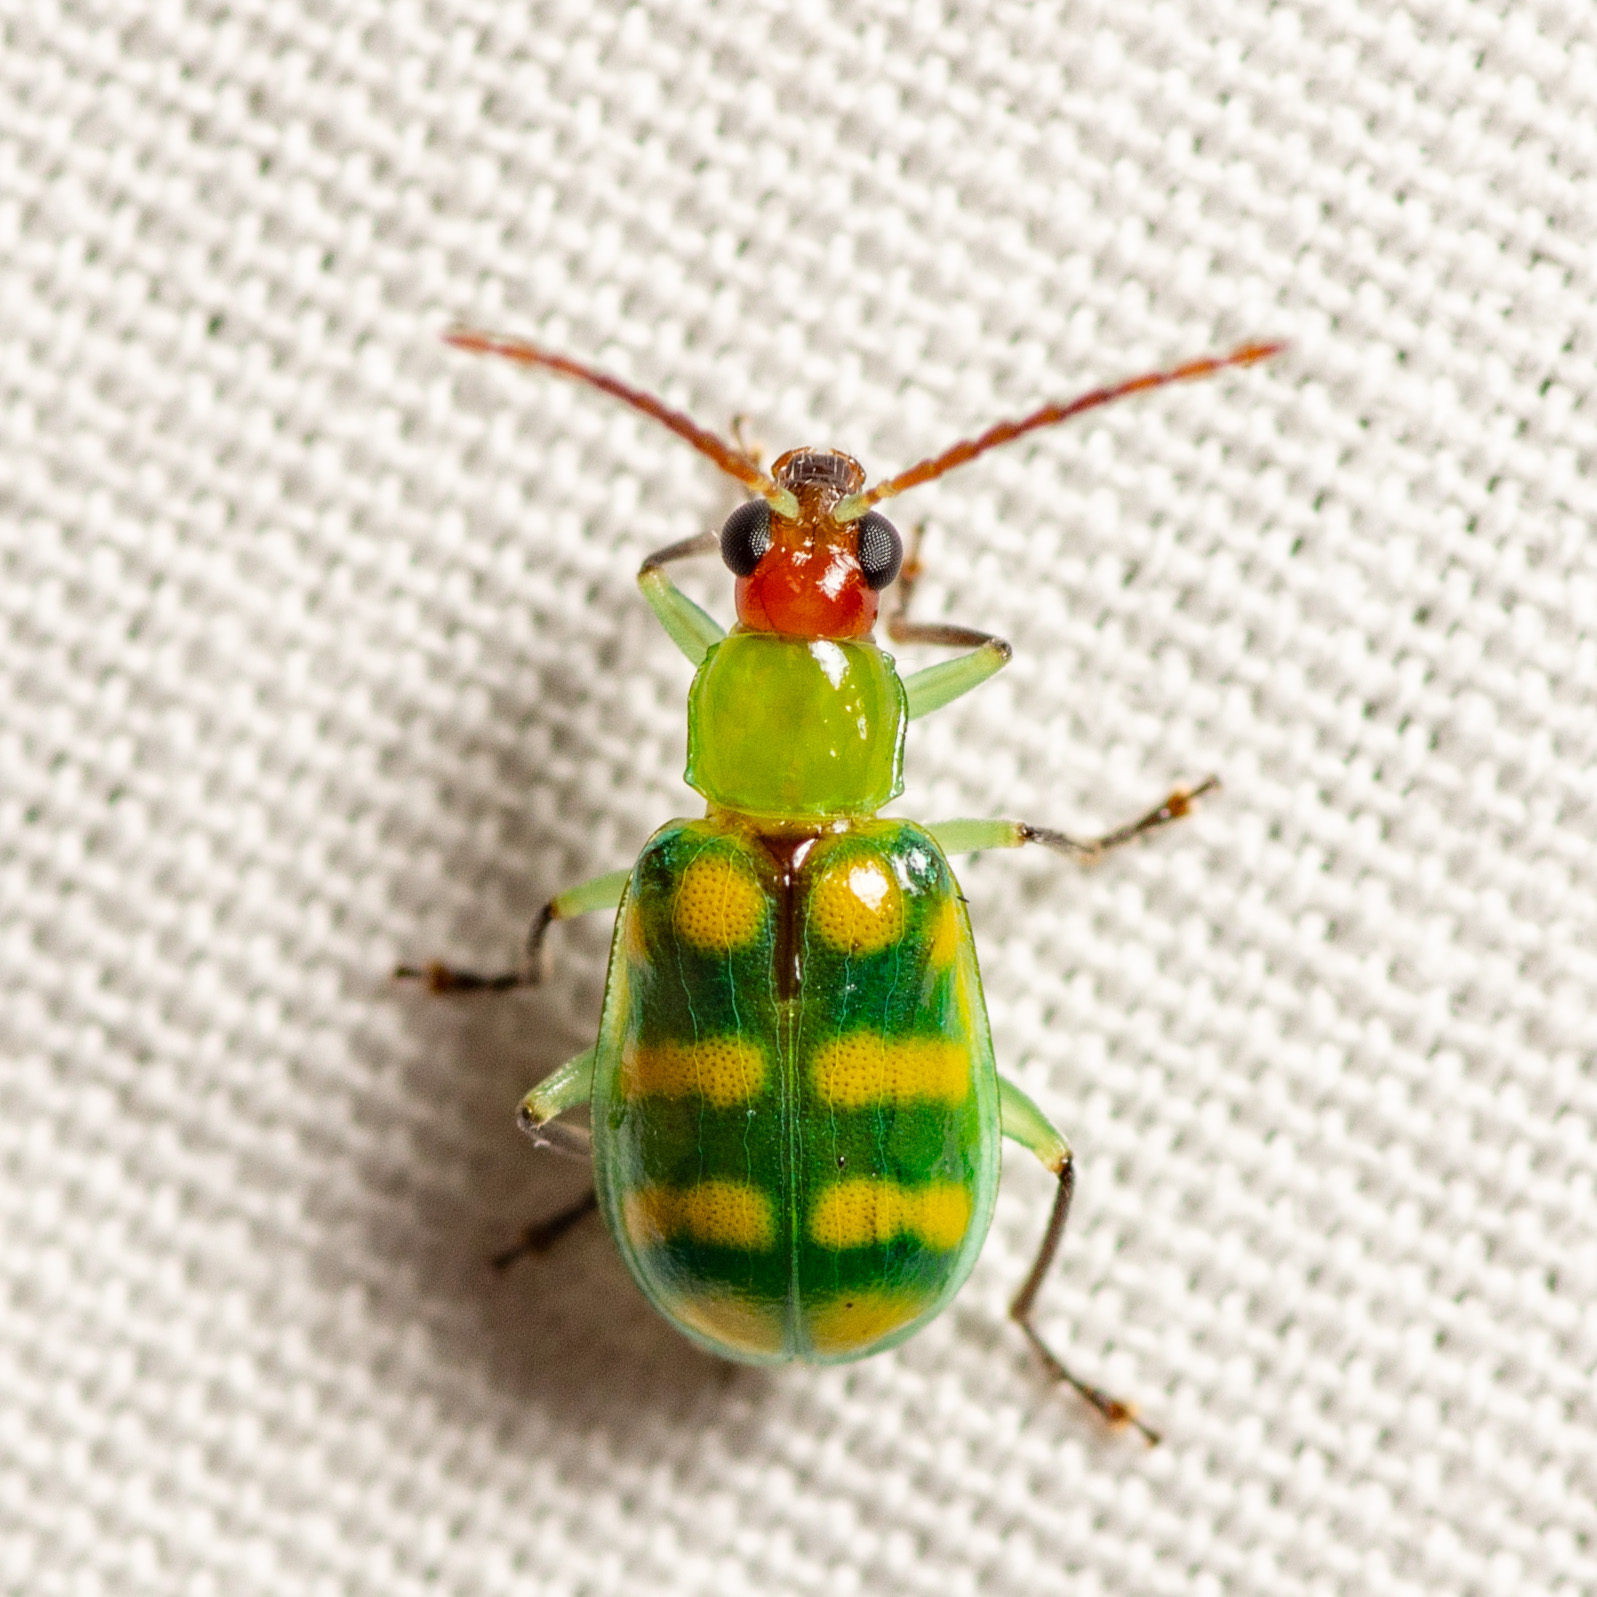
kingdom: Animalia
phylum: Arthropoda
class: Insecta
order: Coleoptera
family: Chrysomelidae
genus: Diabrotica
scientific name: Diabrotica balteata
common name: Leaf beetle
